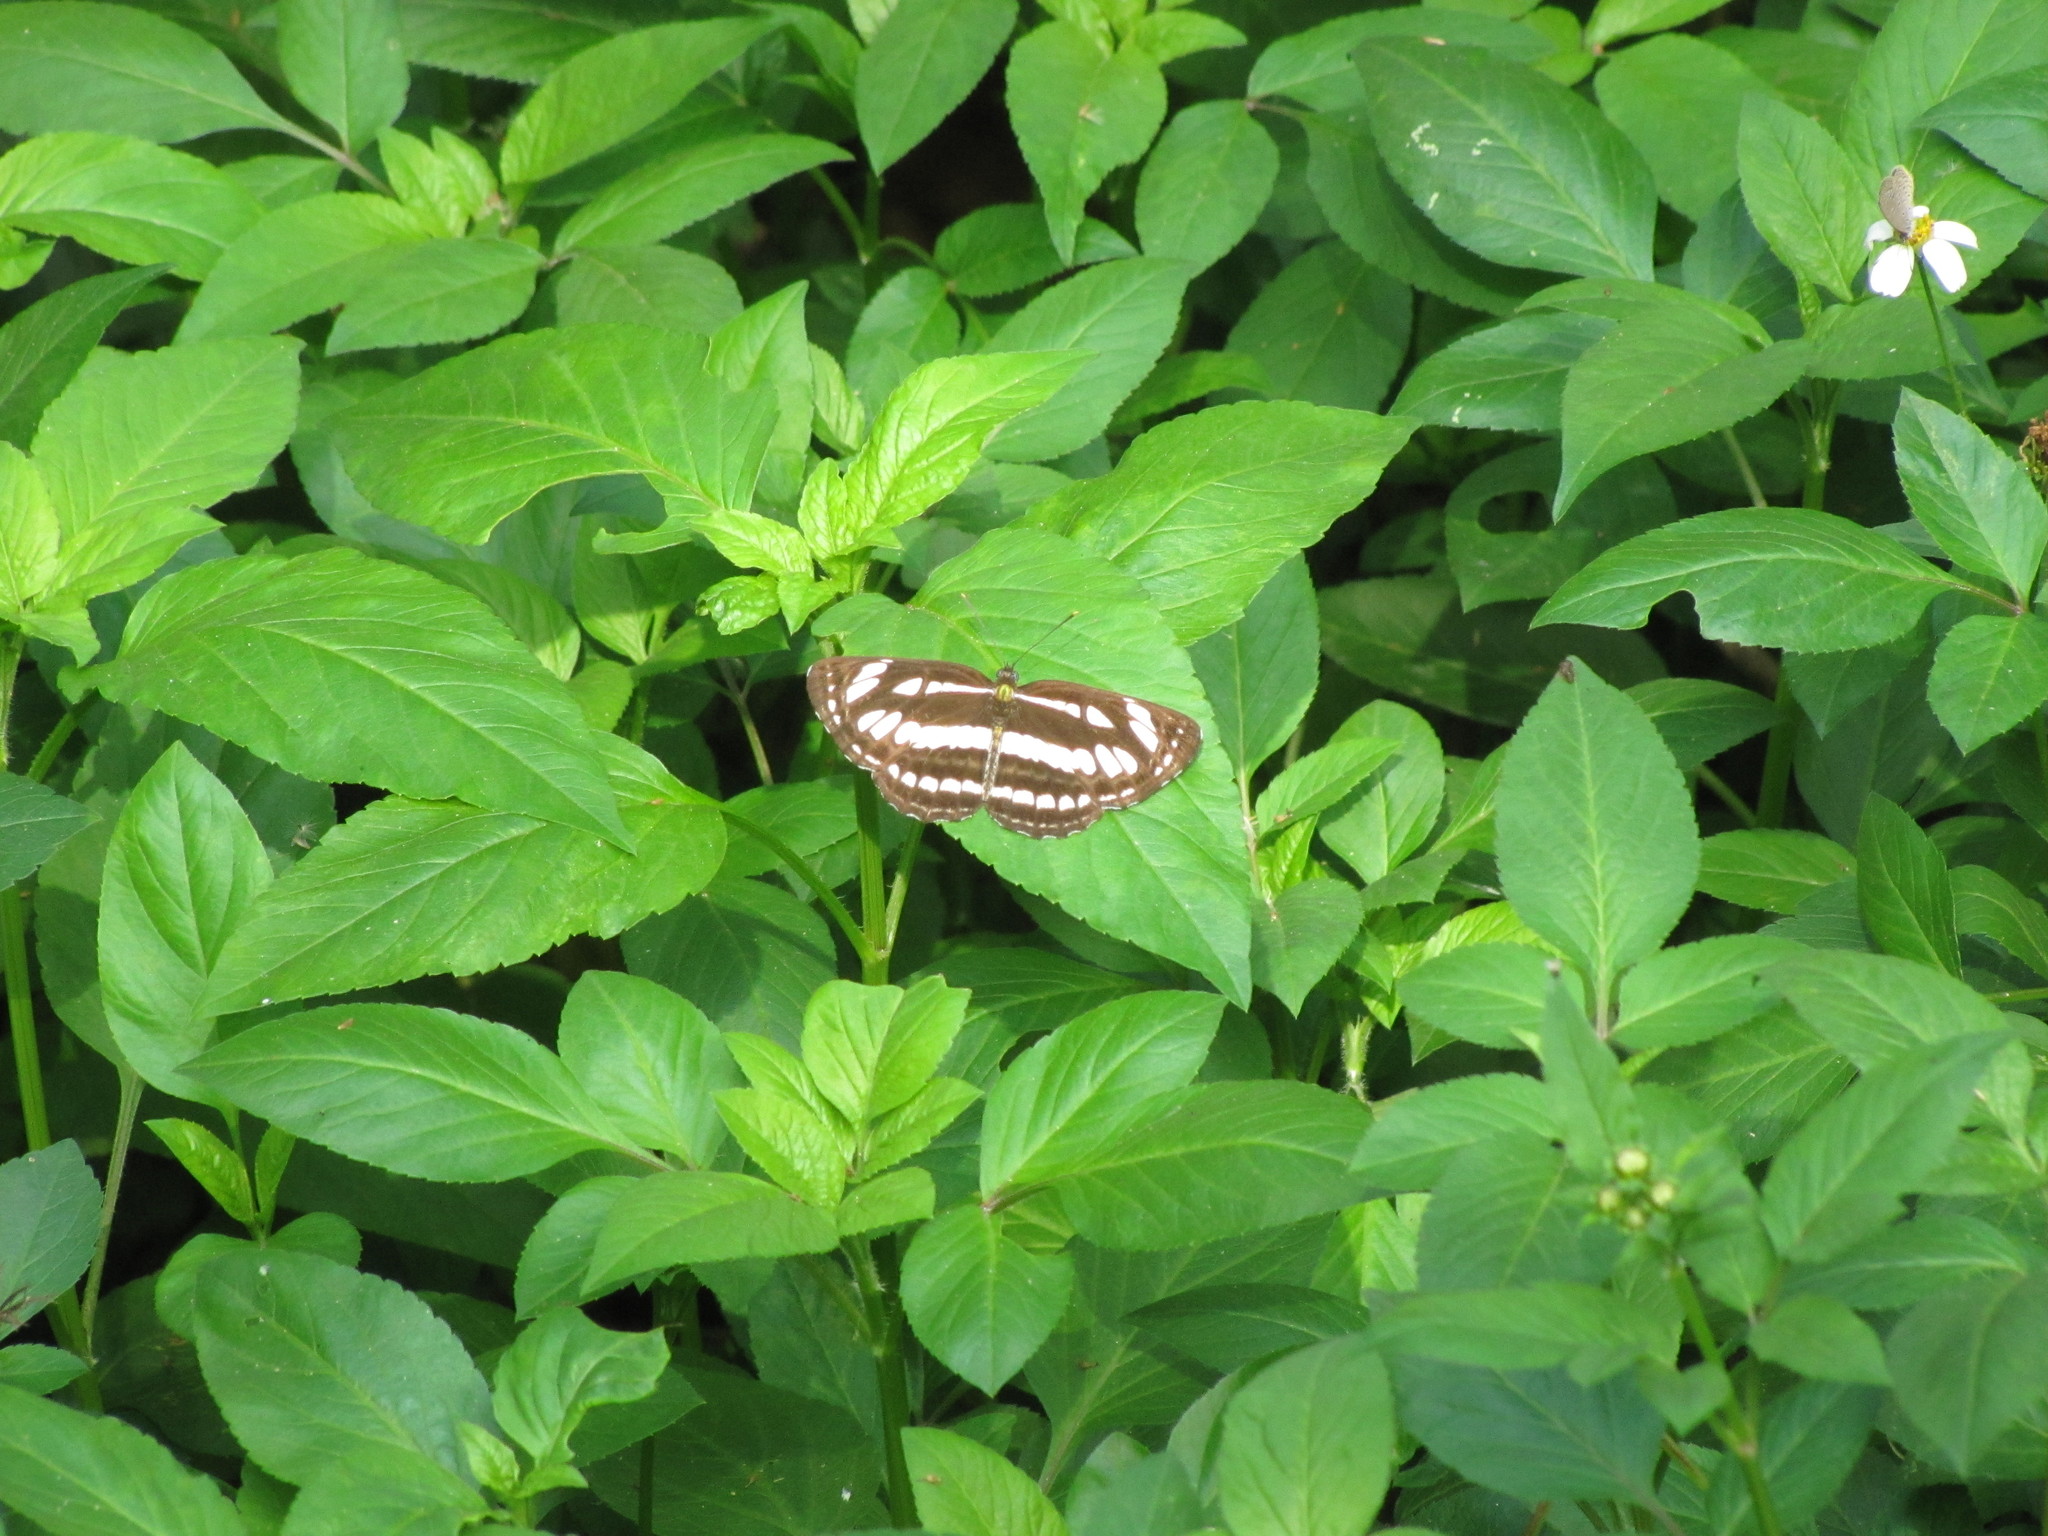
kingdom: Animalia
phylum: Arthropoda
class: Insecta
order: Lepidoptera
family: Nymphalidae
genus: Neptis
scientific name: Neptis hylas
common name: Common sailer
